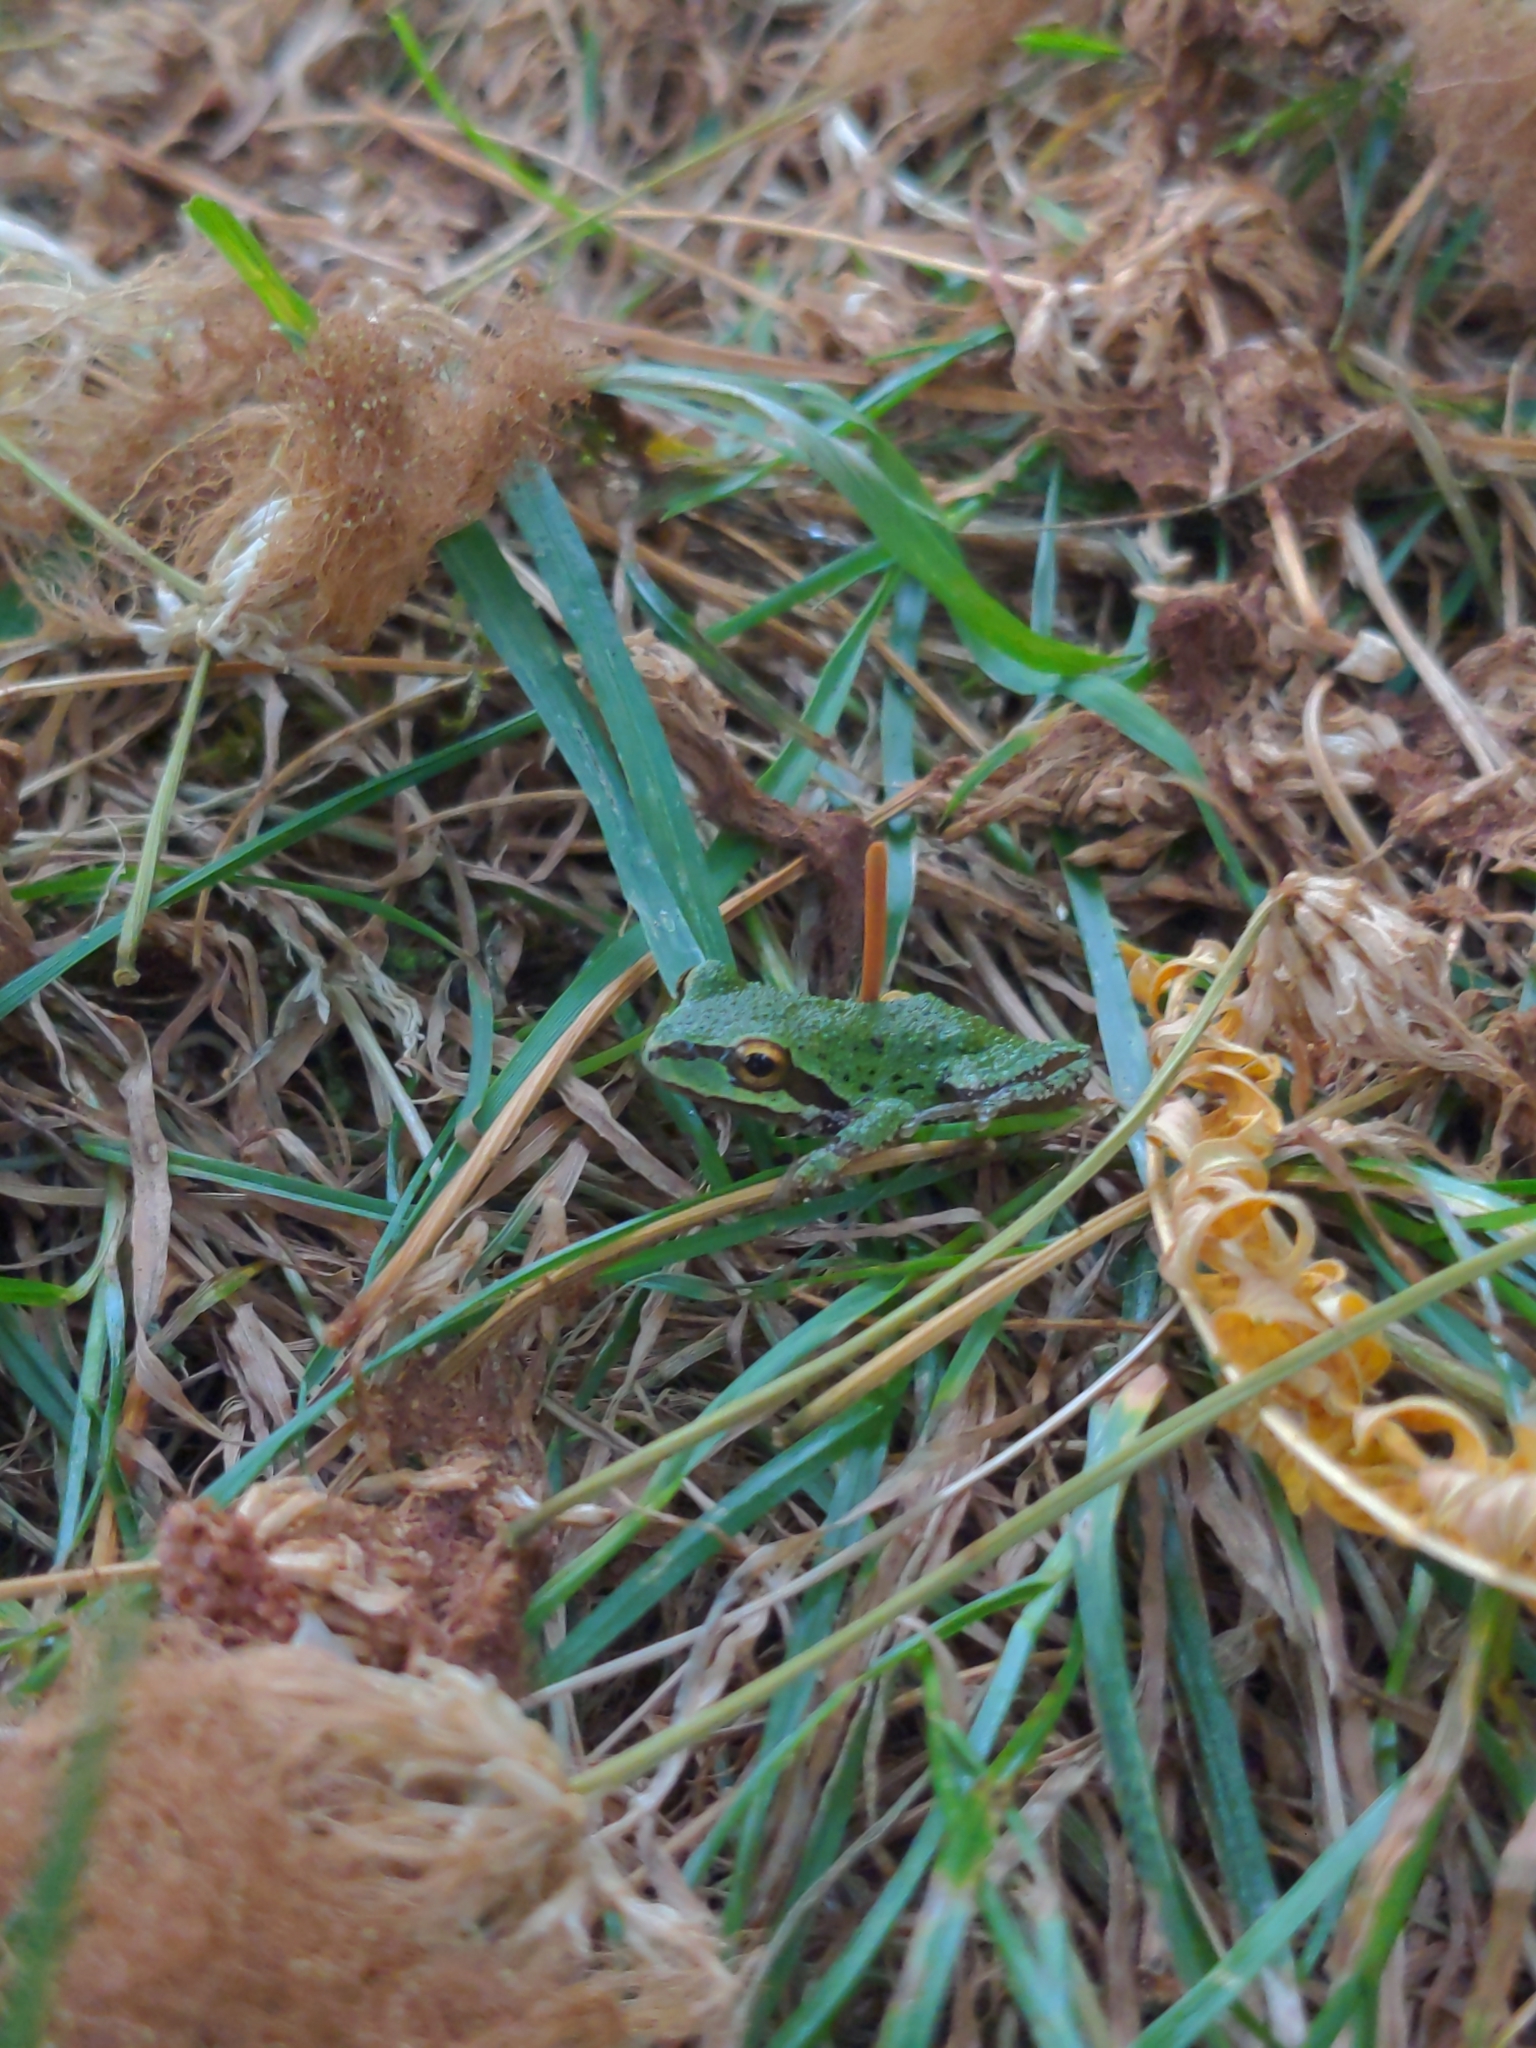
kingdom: Animalia
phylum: Chordata
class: Amphibia
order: Anura
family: Hylidae
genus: Pseudacris
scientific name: Pseudacris regilla
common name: Pacific chorus frog
